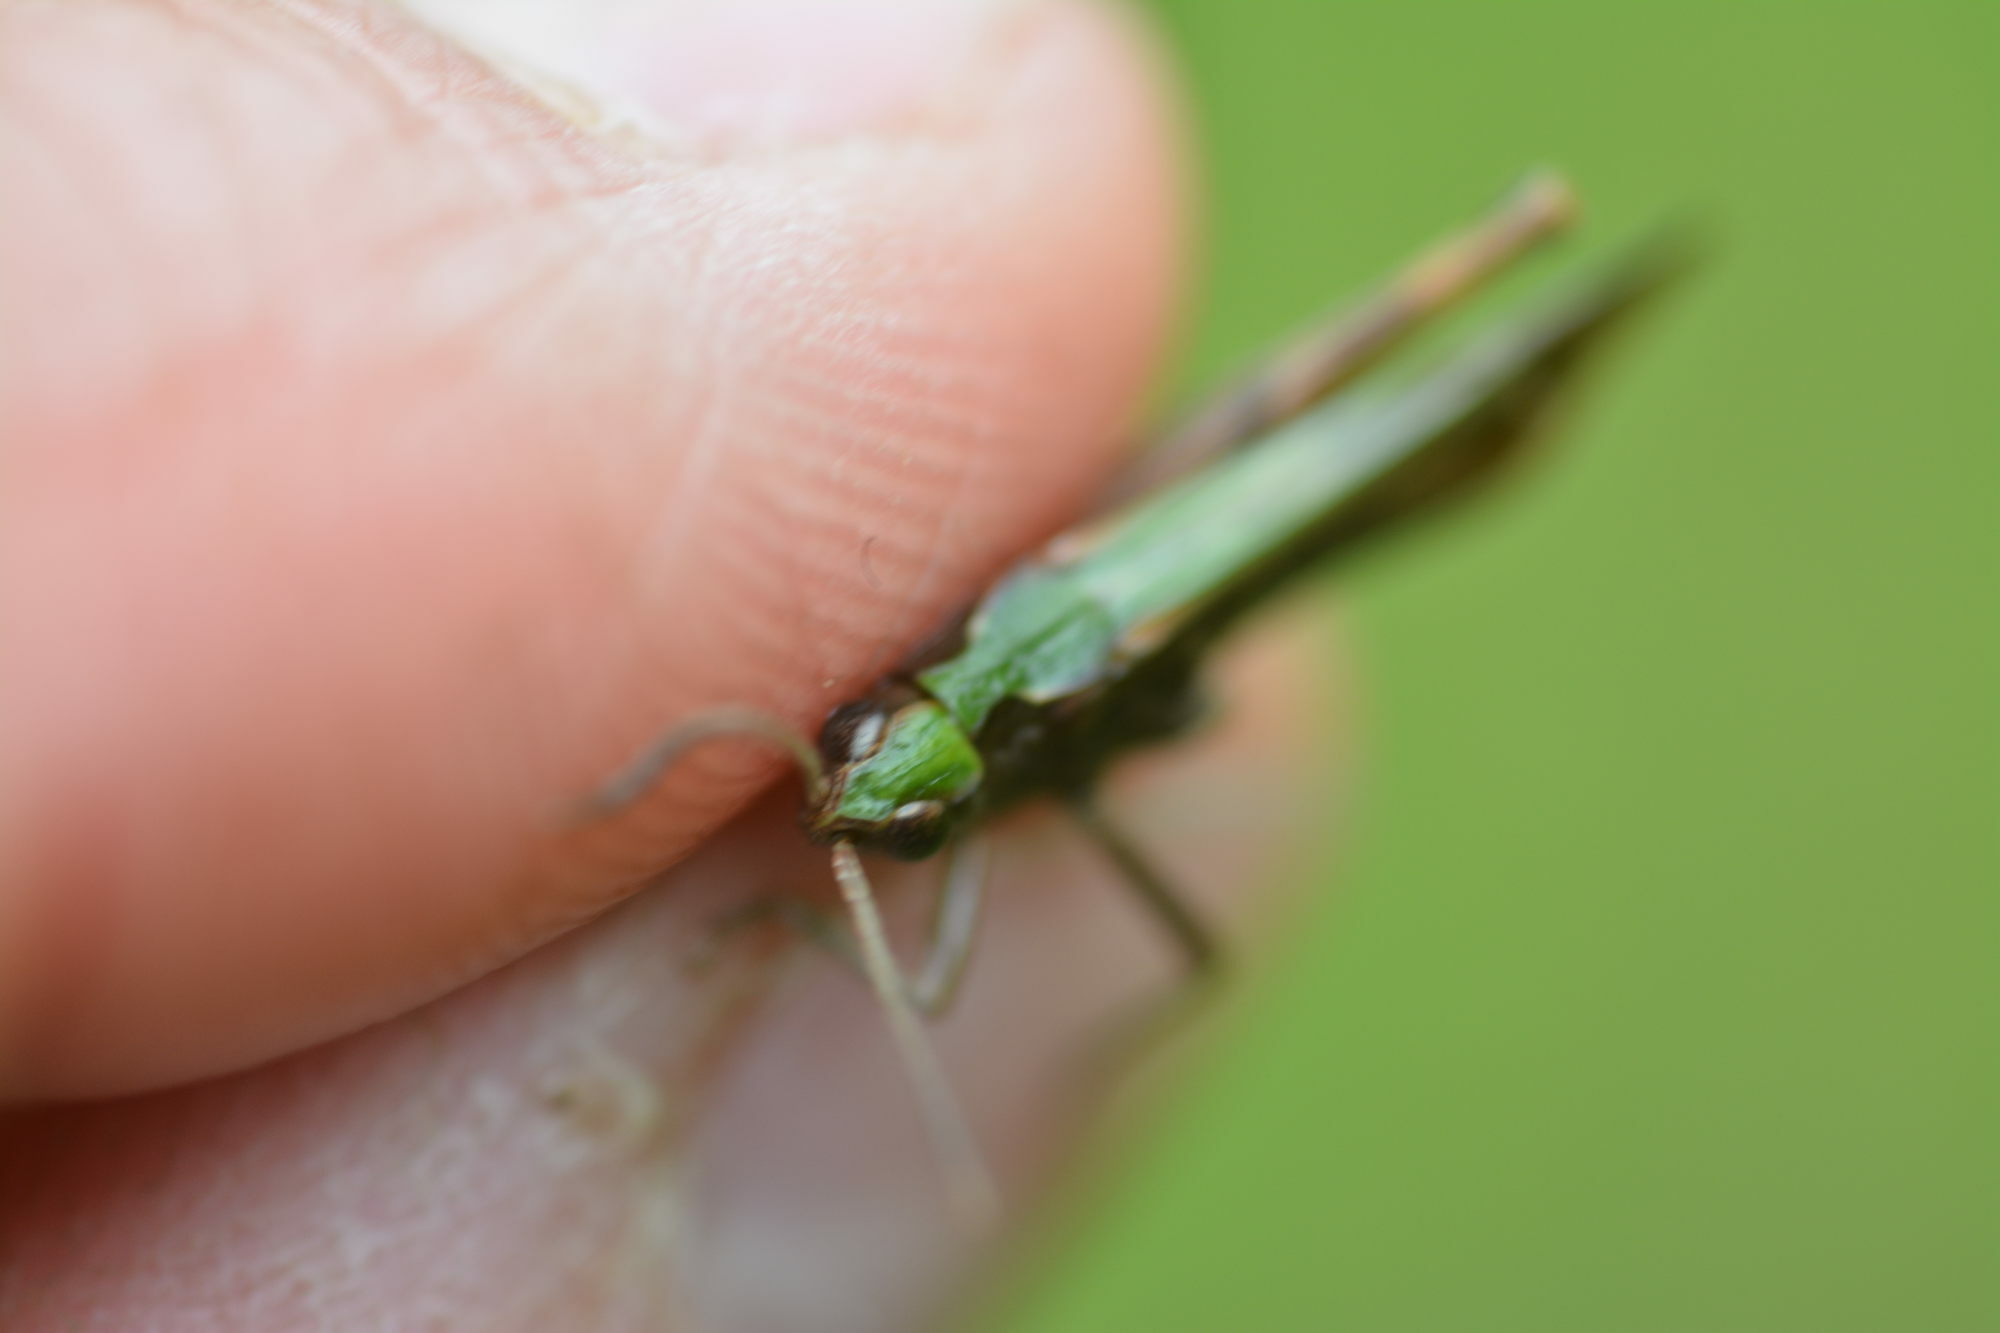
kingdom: Animalia
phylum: Arthropoda
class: Insecta
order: Orthoptera
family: Acrididae
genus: Chorthippus
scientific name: Chorthippus biguttulus
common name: Bow-winged grasshopper
